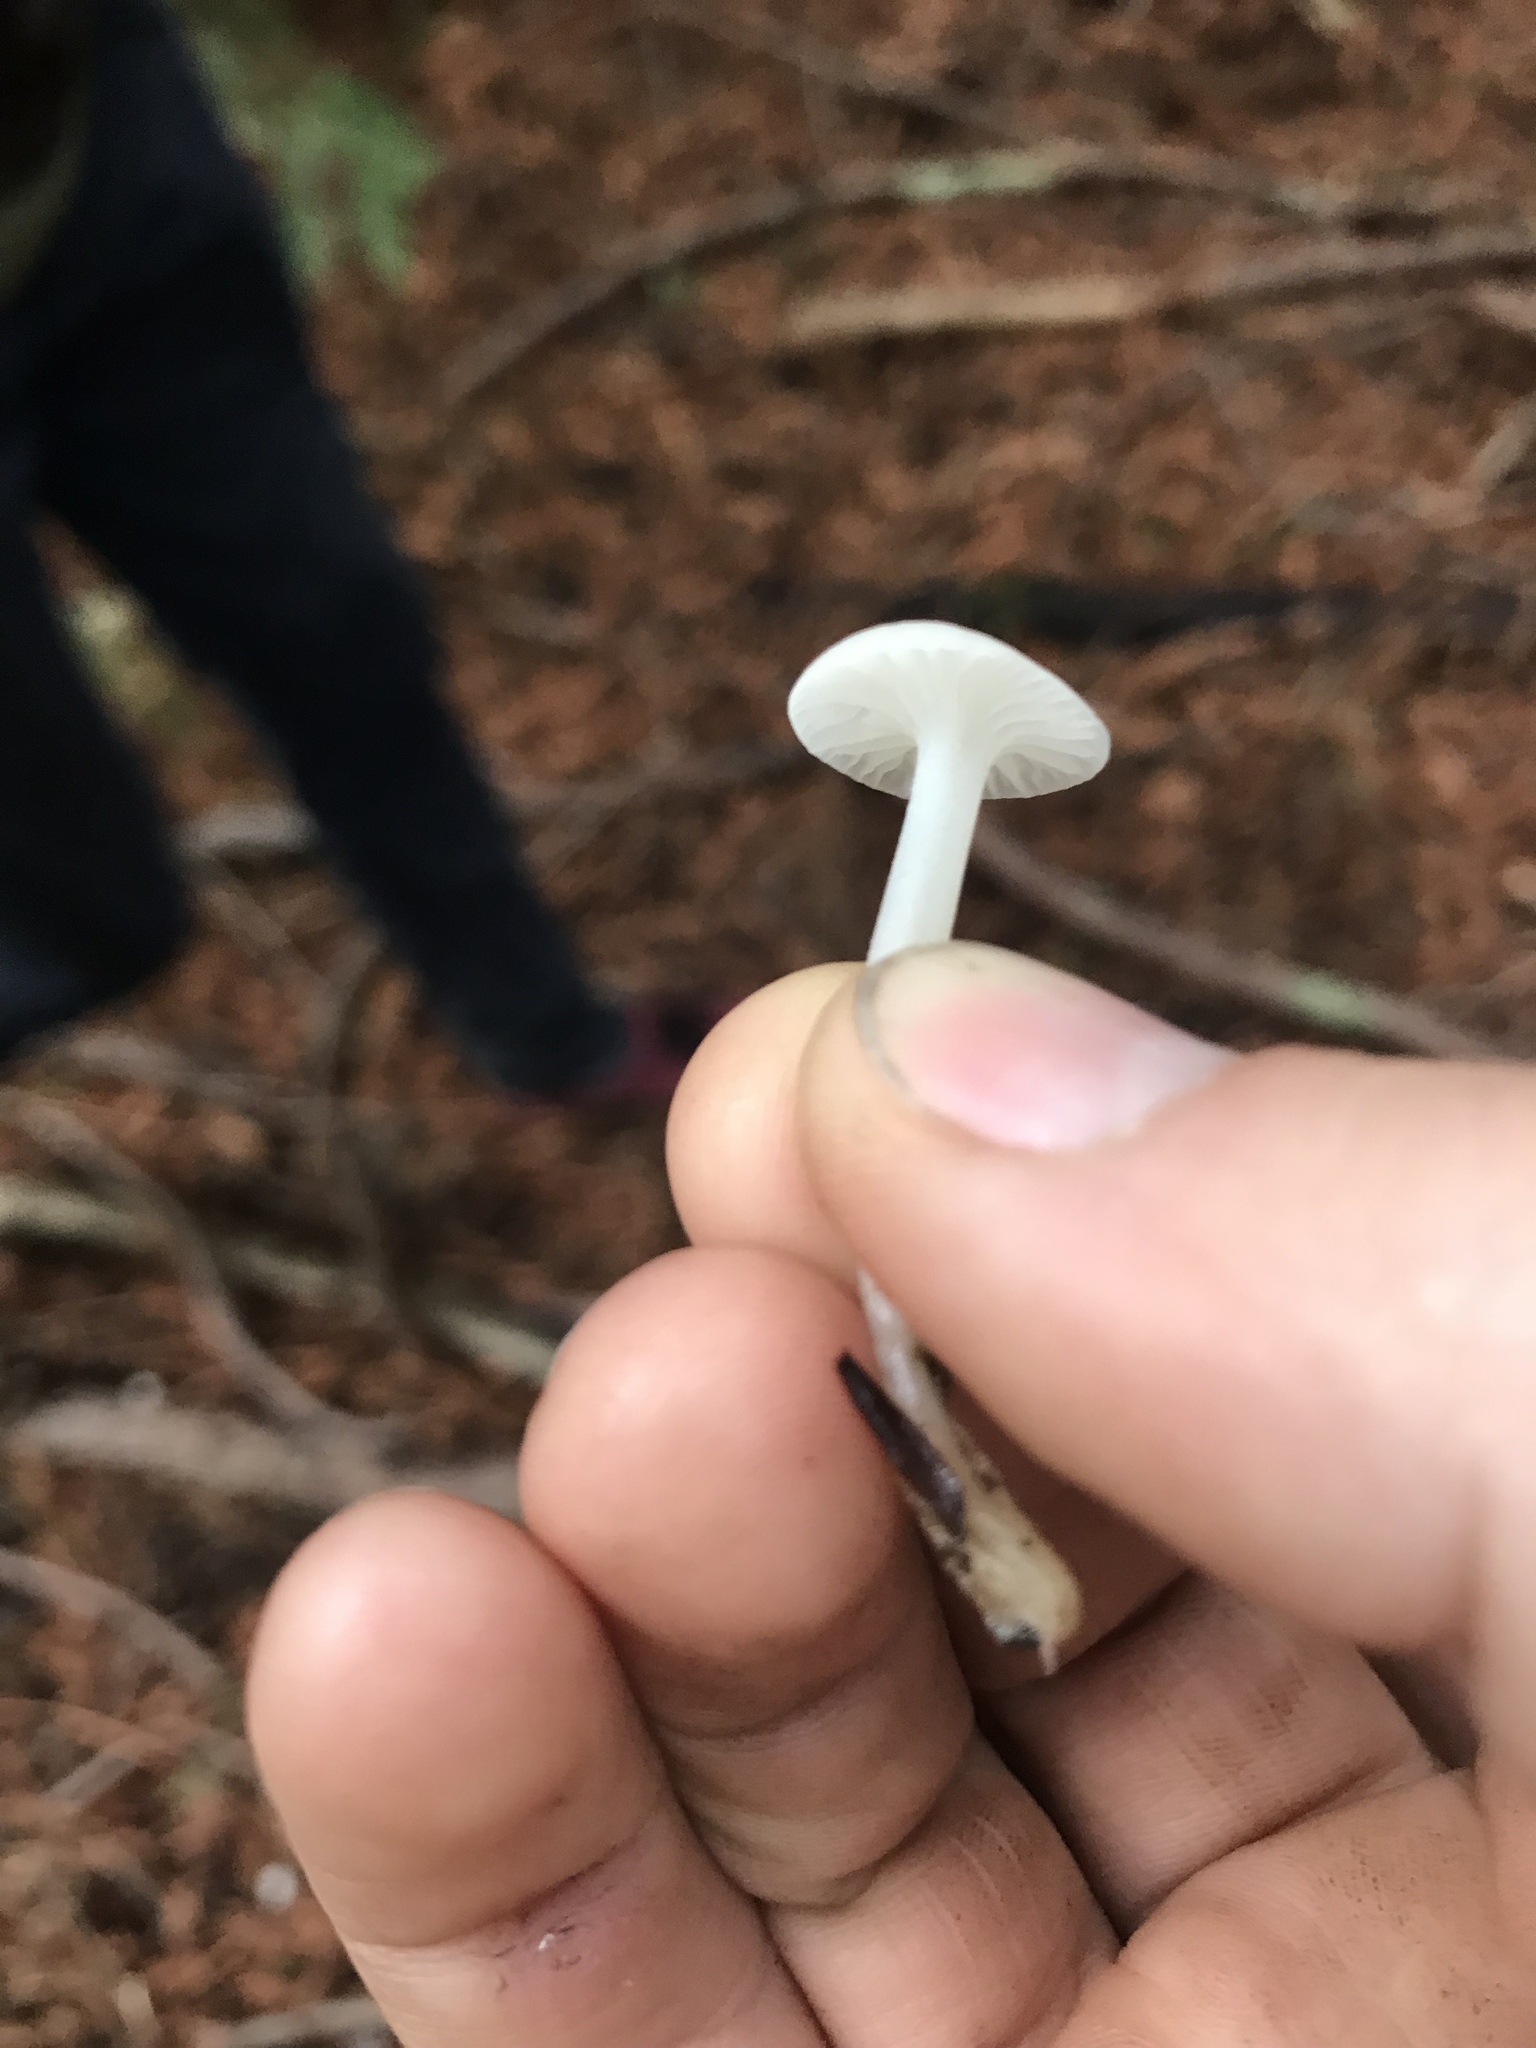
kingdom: Fungi
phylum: Basidiomycota
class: Agaricomycetes
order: Agaricales
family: Marasmiaceae
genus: Marasmius
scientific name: Marasmius calhouniae
